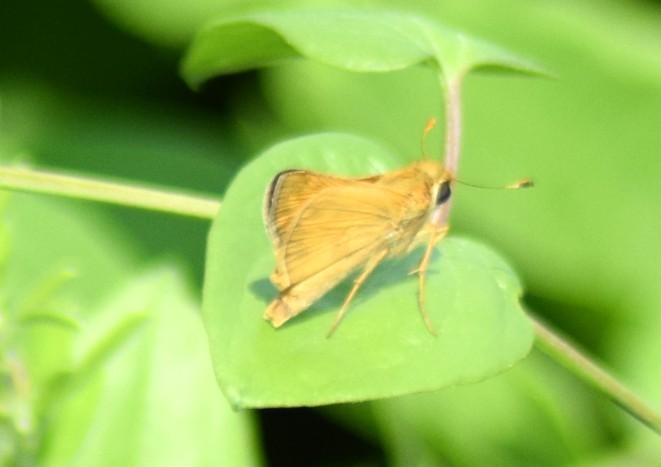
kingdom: Animalia
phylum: Arthropoda
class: Insecta
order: Lepidoptera
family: Hesperiidae
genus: Atalopedes
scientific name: Atalopedes
